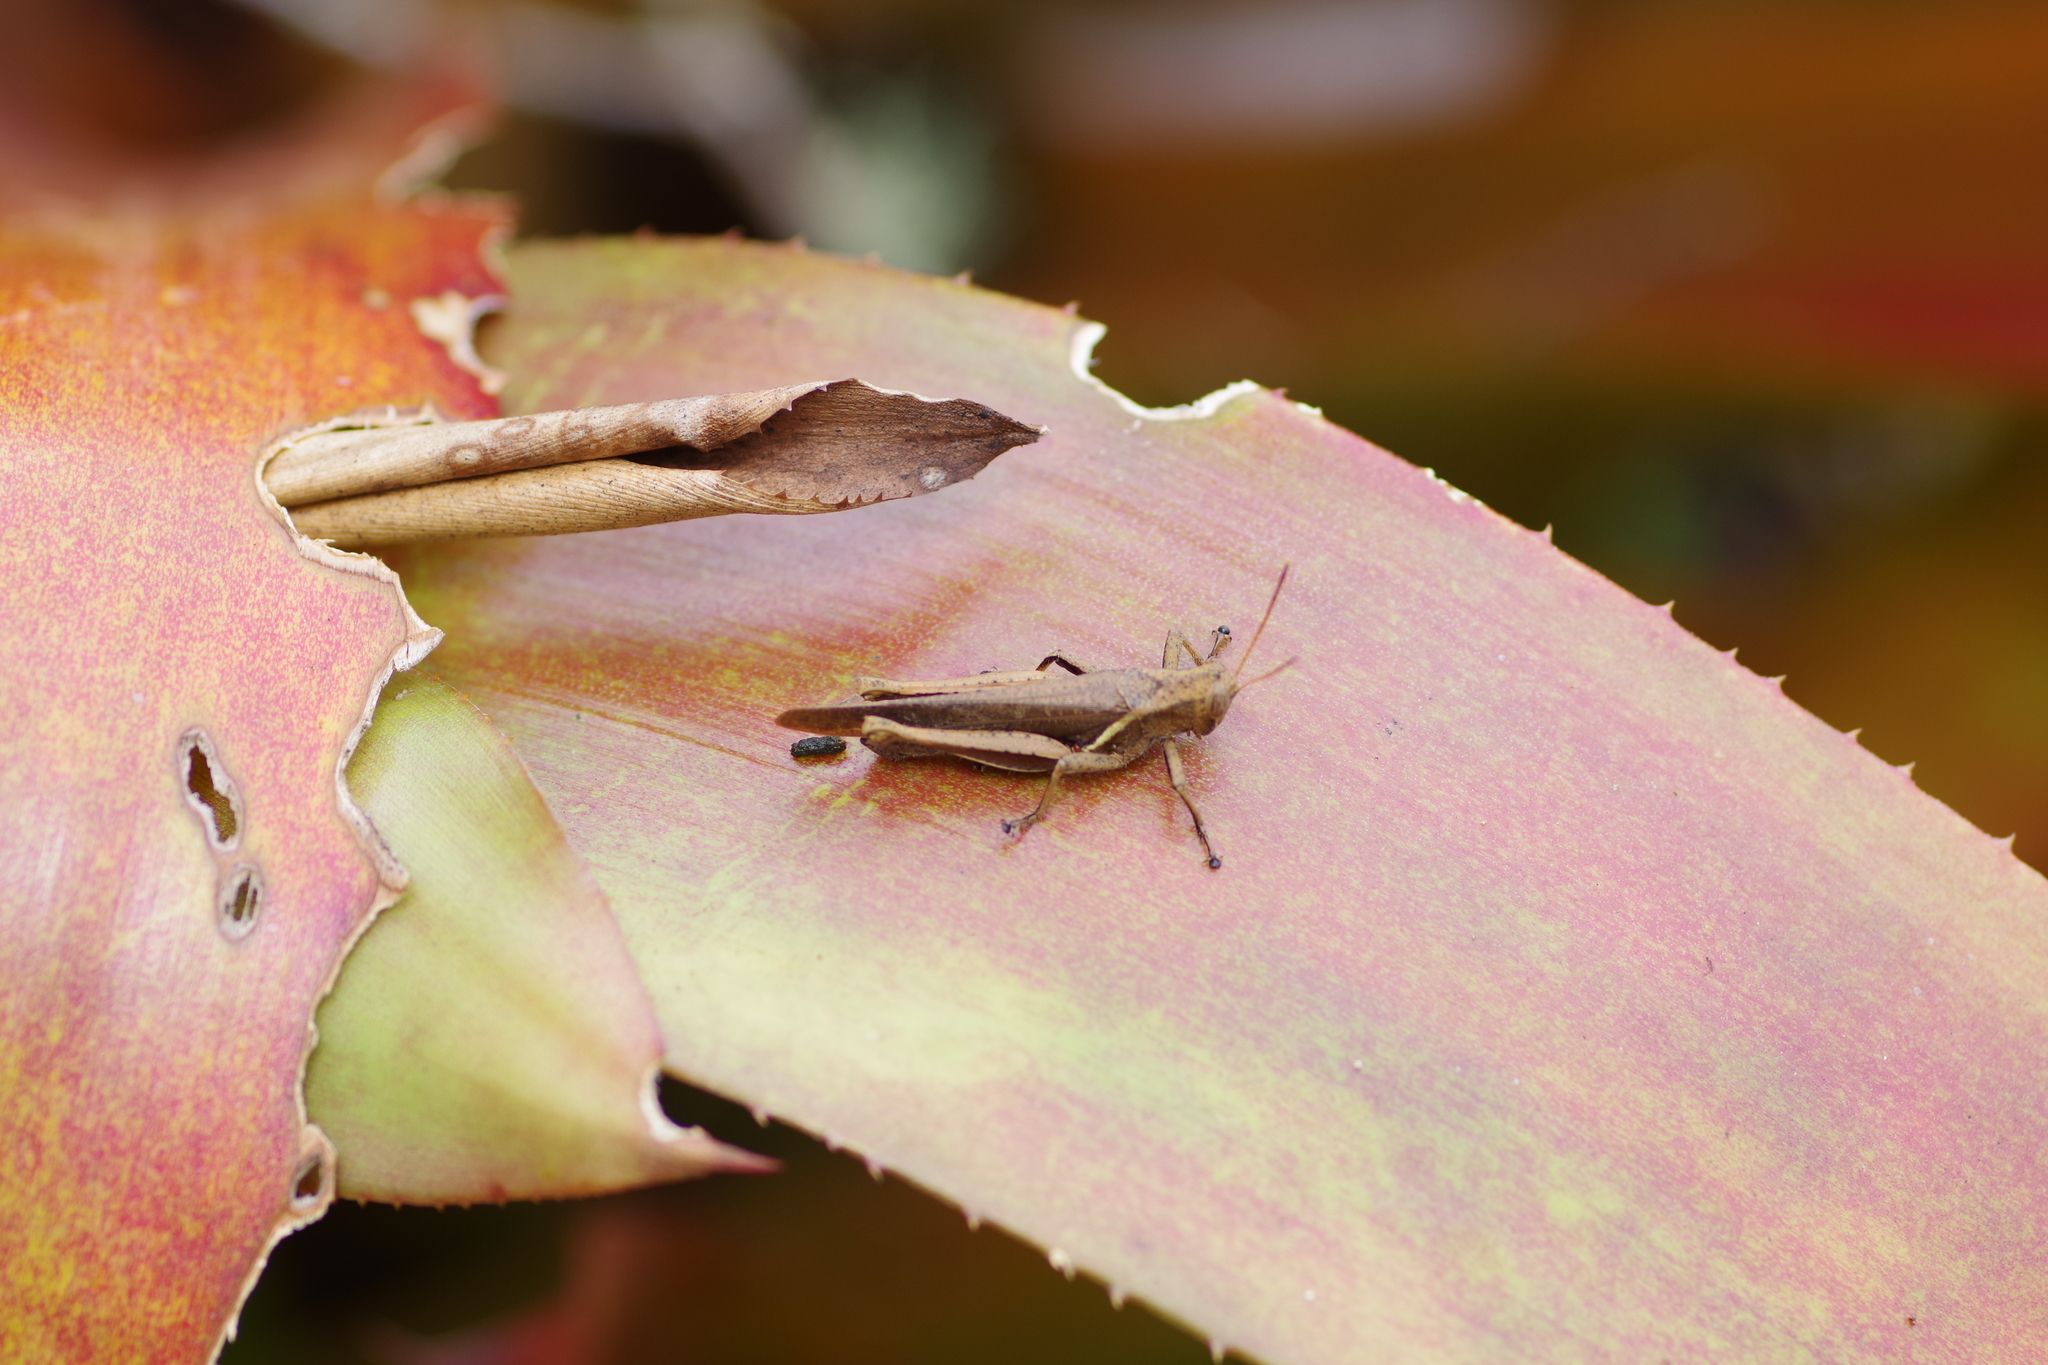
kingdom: Animalia
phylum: Arthropoda
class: Insecta
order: Orthoptera
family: Acrididae
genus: Abracris
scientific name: Abracris flavolineata
